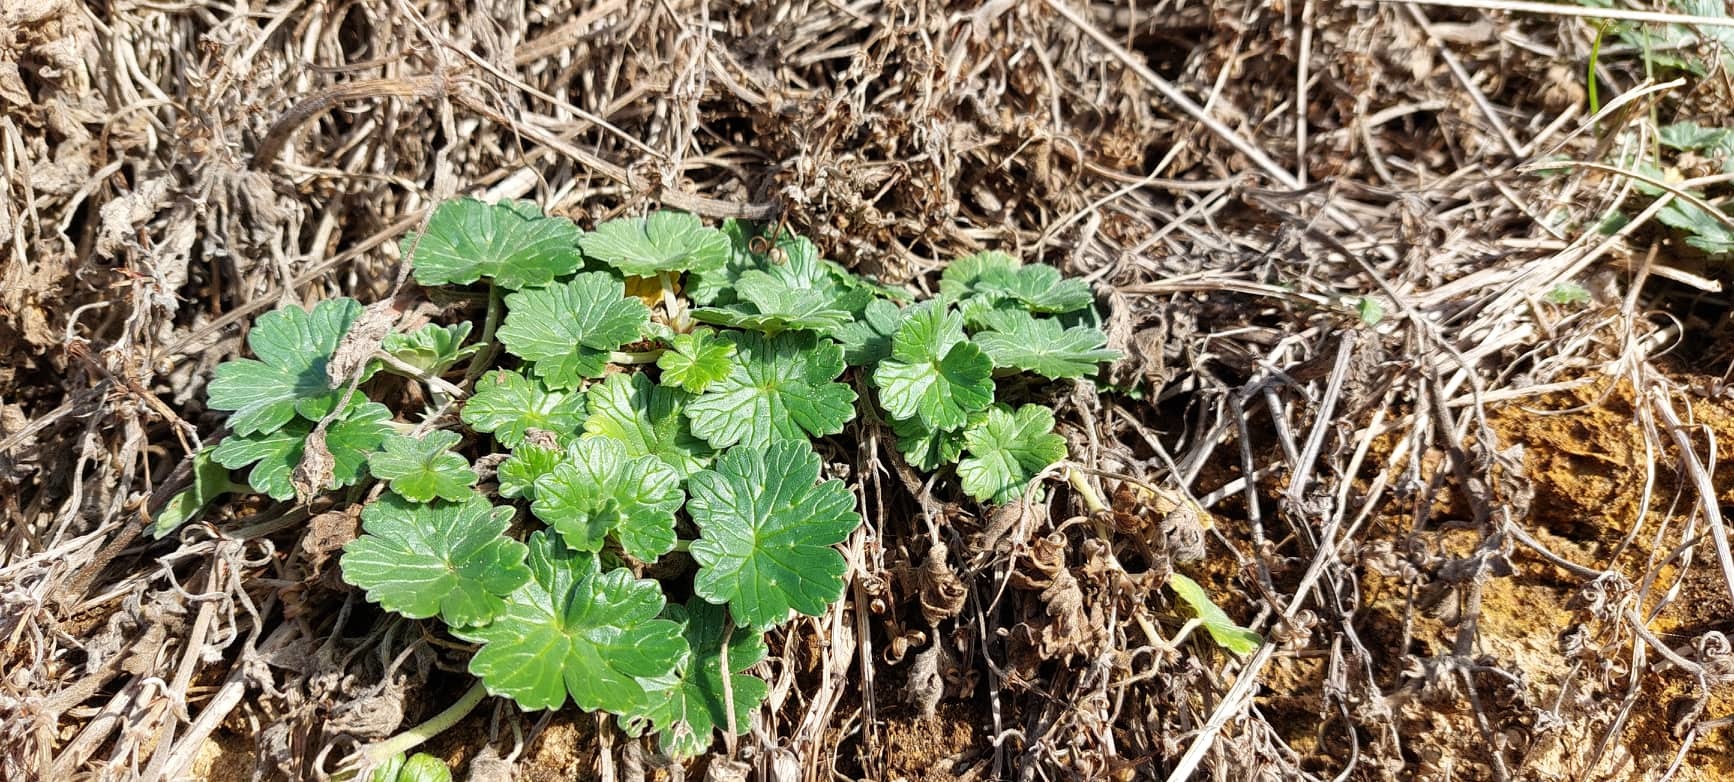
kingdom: Plantae
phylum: Tracheophyta
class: Magnoliopsida
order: Geraniales
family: Geraniaceae
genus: Geranium
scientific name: Geranium traversii
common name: Cranesbill
